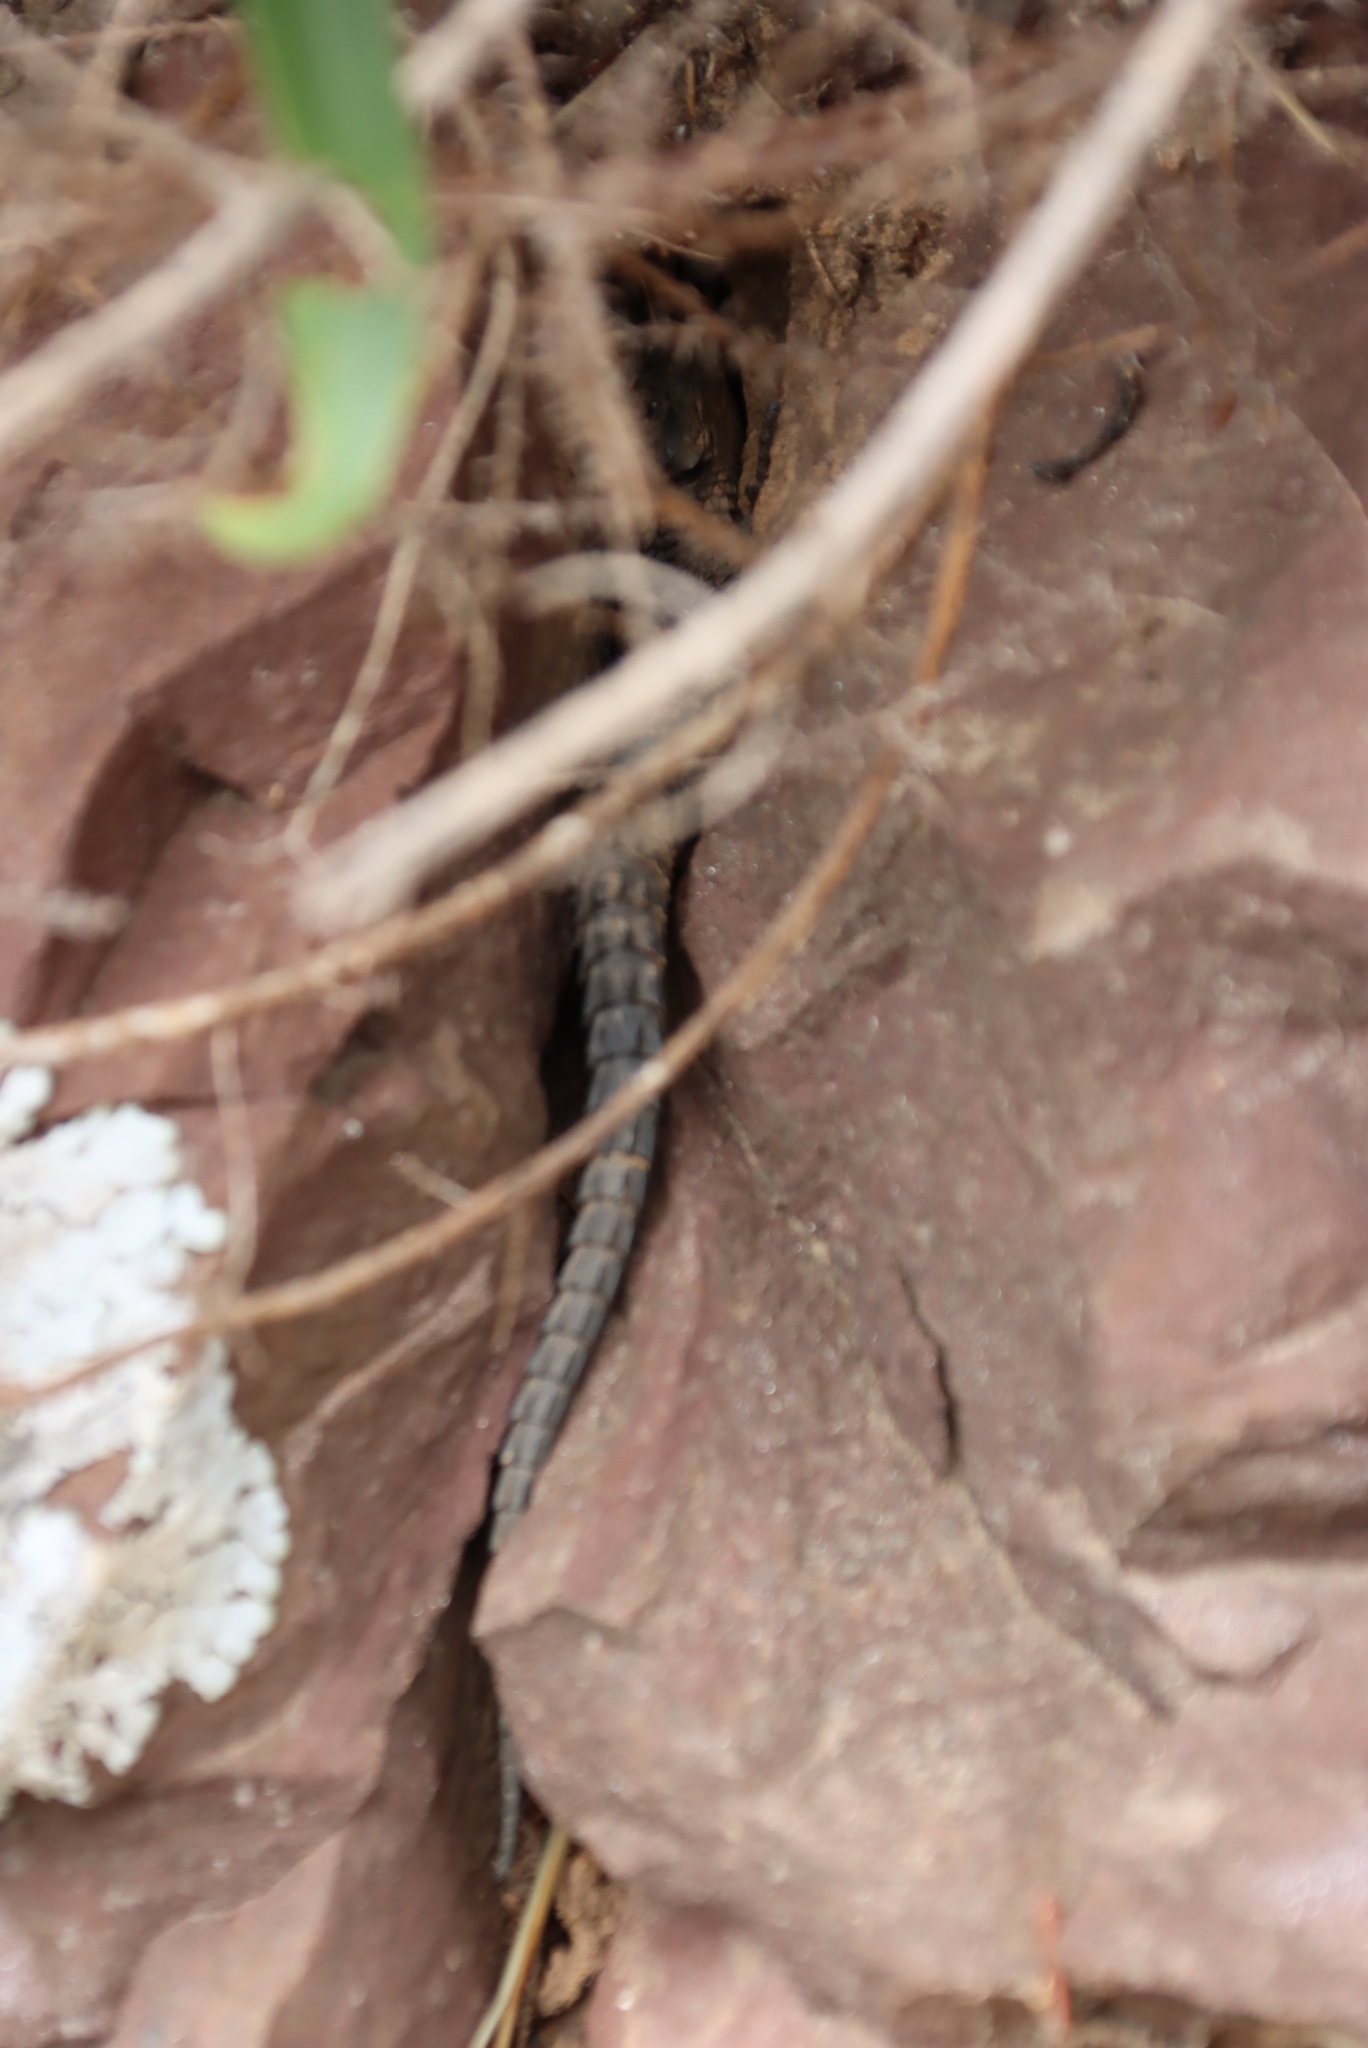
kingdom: Animalia
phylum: Chordata
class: Squamata
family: Cordylidae
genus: Cordylus
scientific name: Cordylus niger
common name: Black girdled lizard
